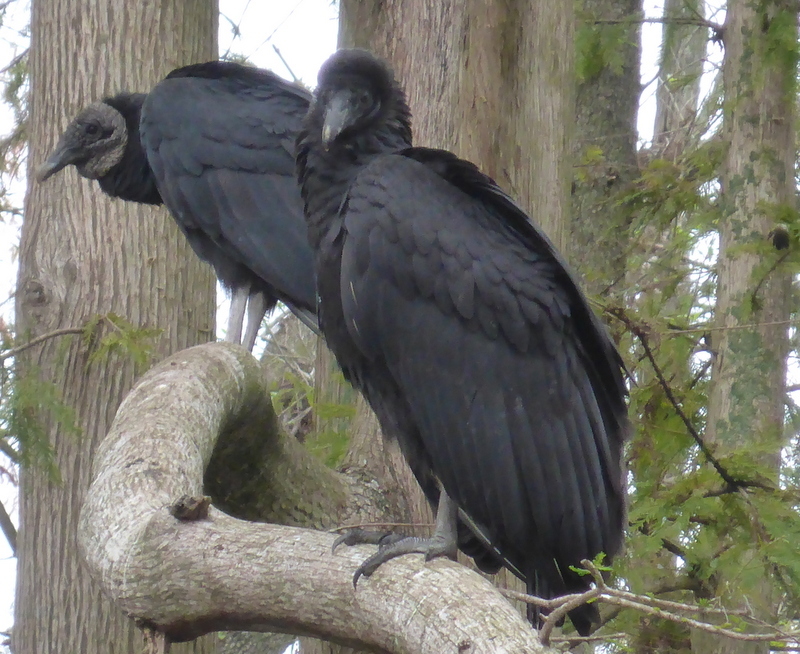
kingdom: Animalia
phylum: Chordata
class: Aves
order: Accipitriformes
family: Cathartidae
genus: Coragyps
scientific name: Coragyps atratus
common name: Black vulture
